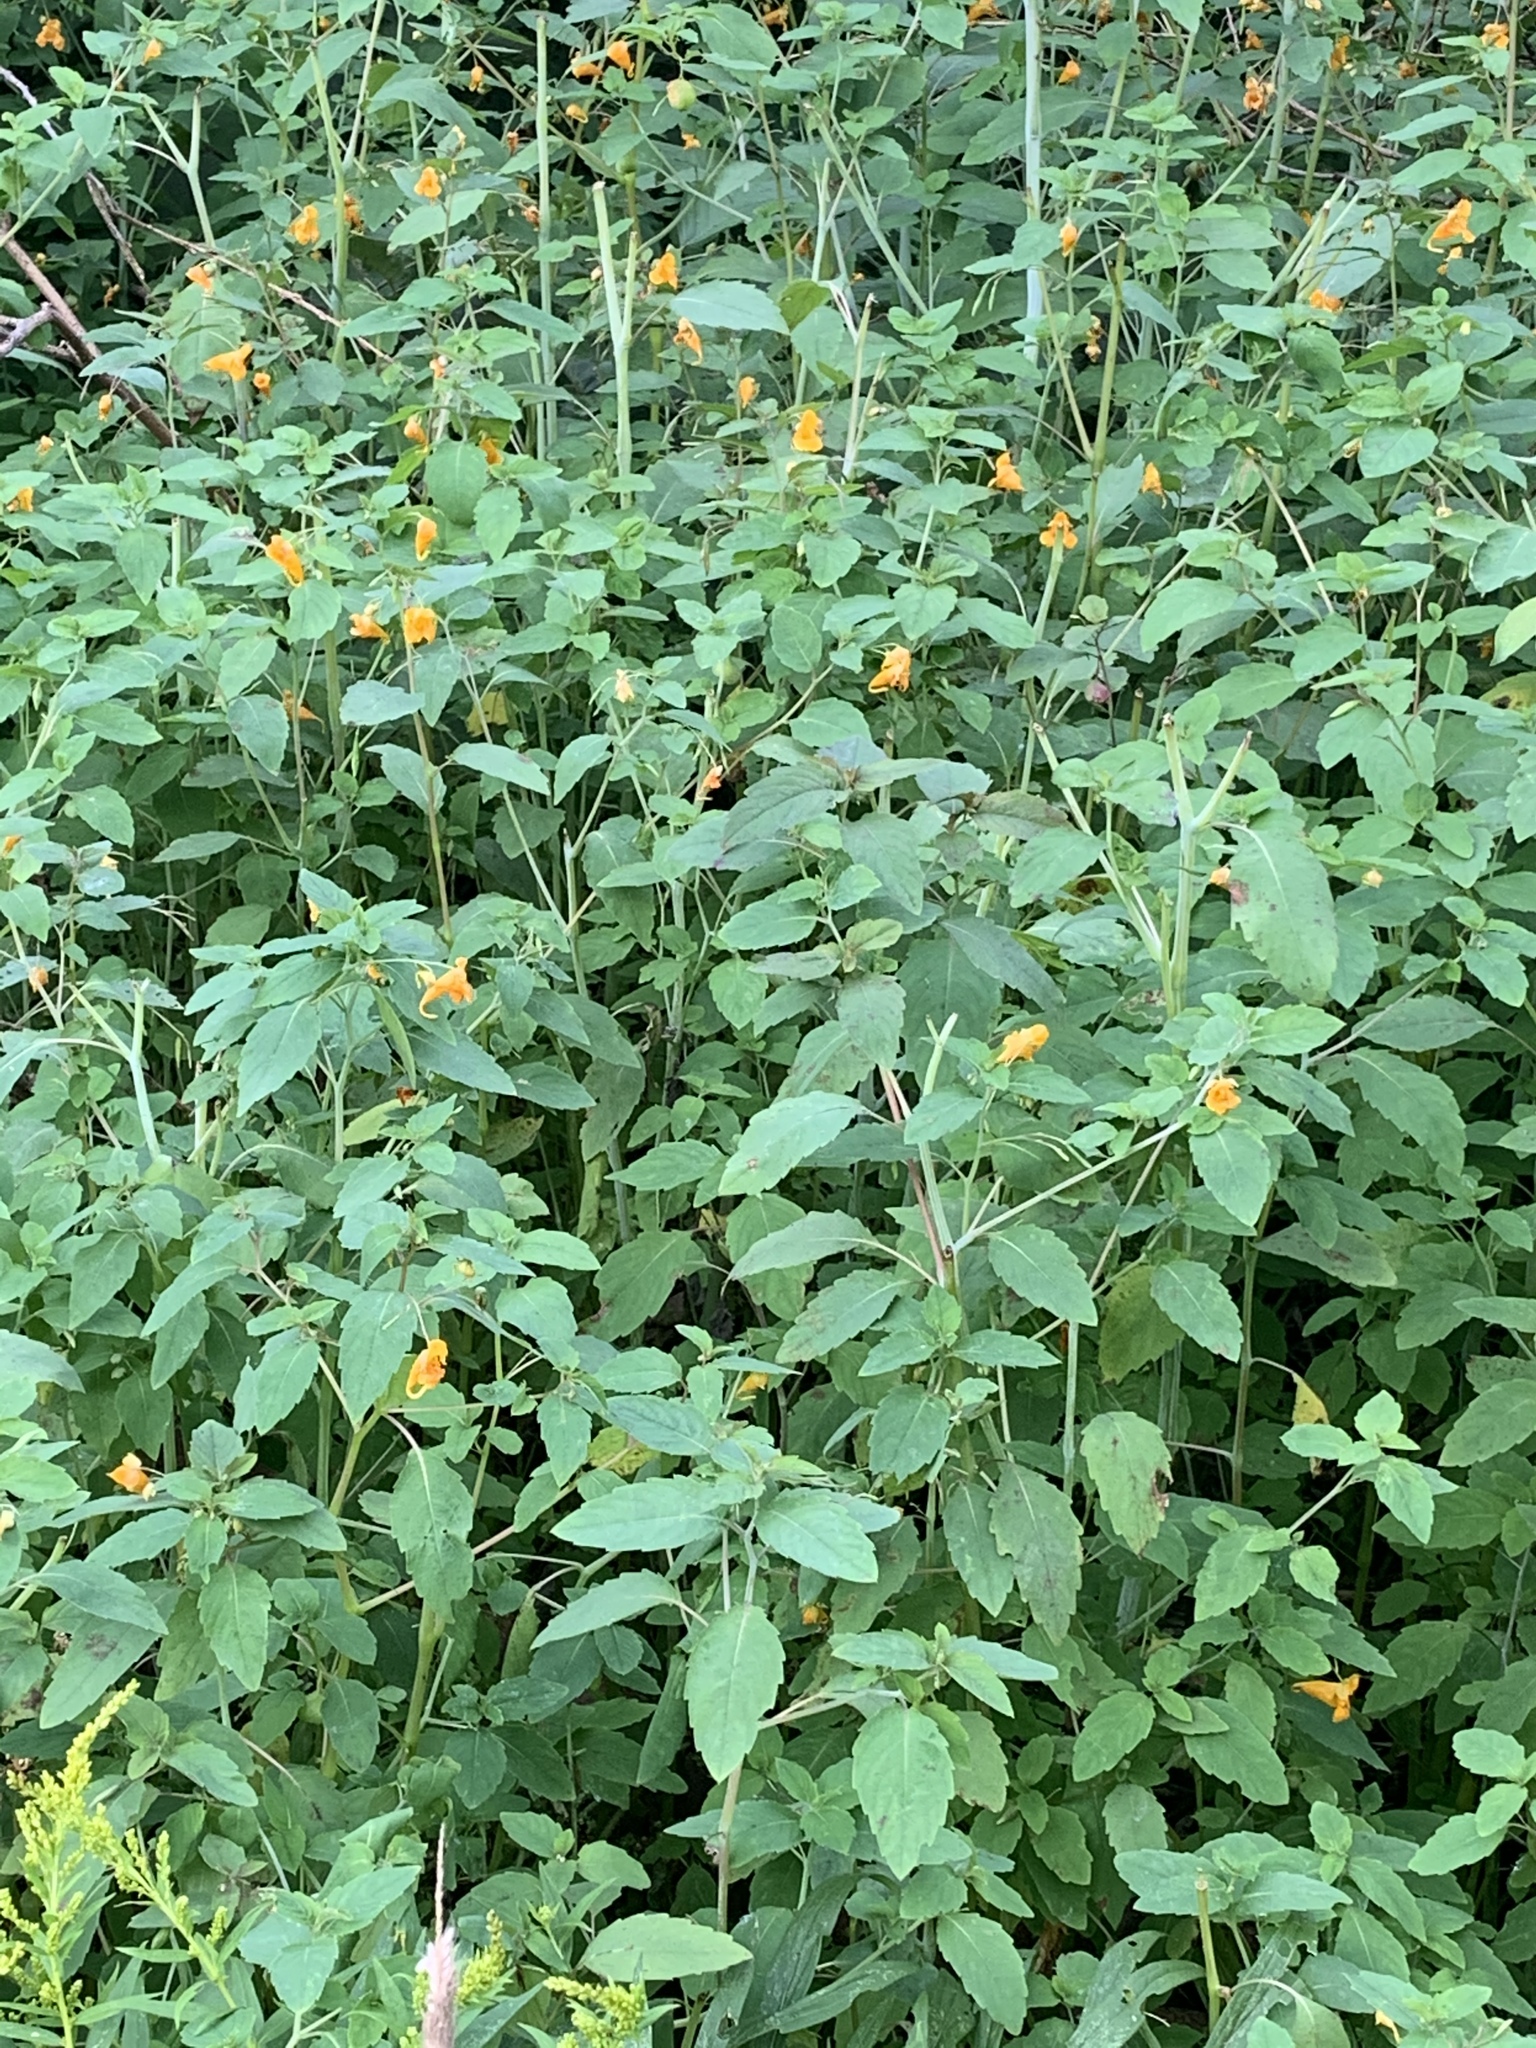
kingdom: Plantae
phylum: Tracheophyta
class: Magnoliopsida
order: Ericales
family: Balsaminaceae
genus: Impatiens
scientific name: Impatiens capensis
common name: Orange balsam
